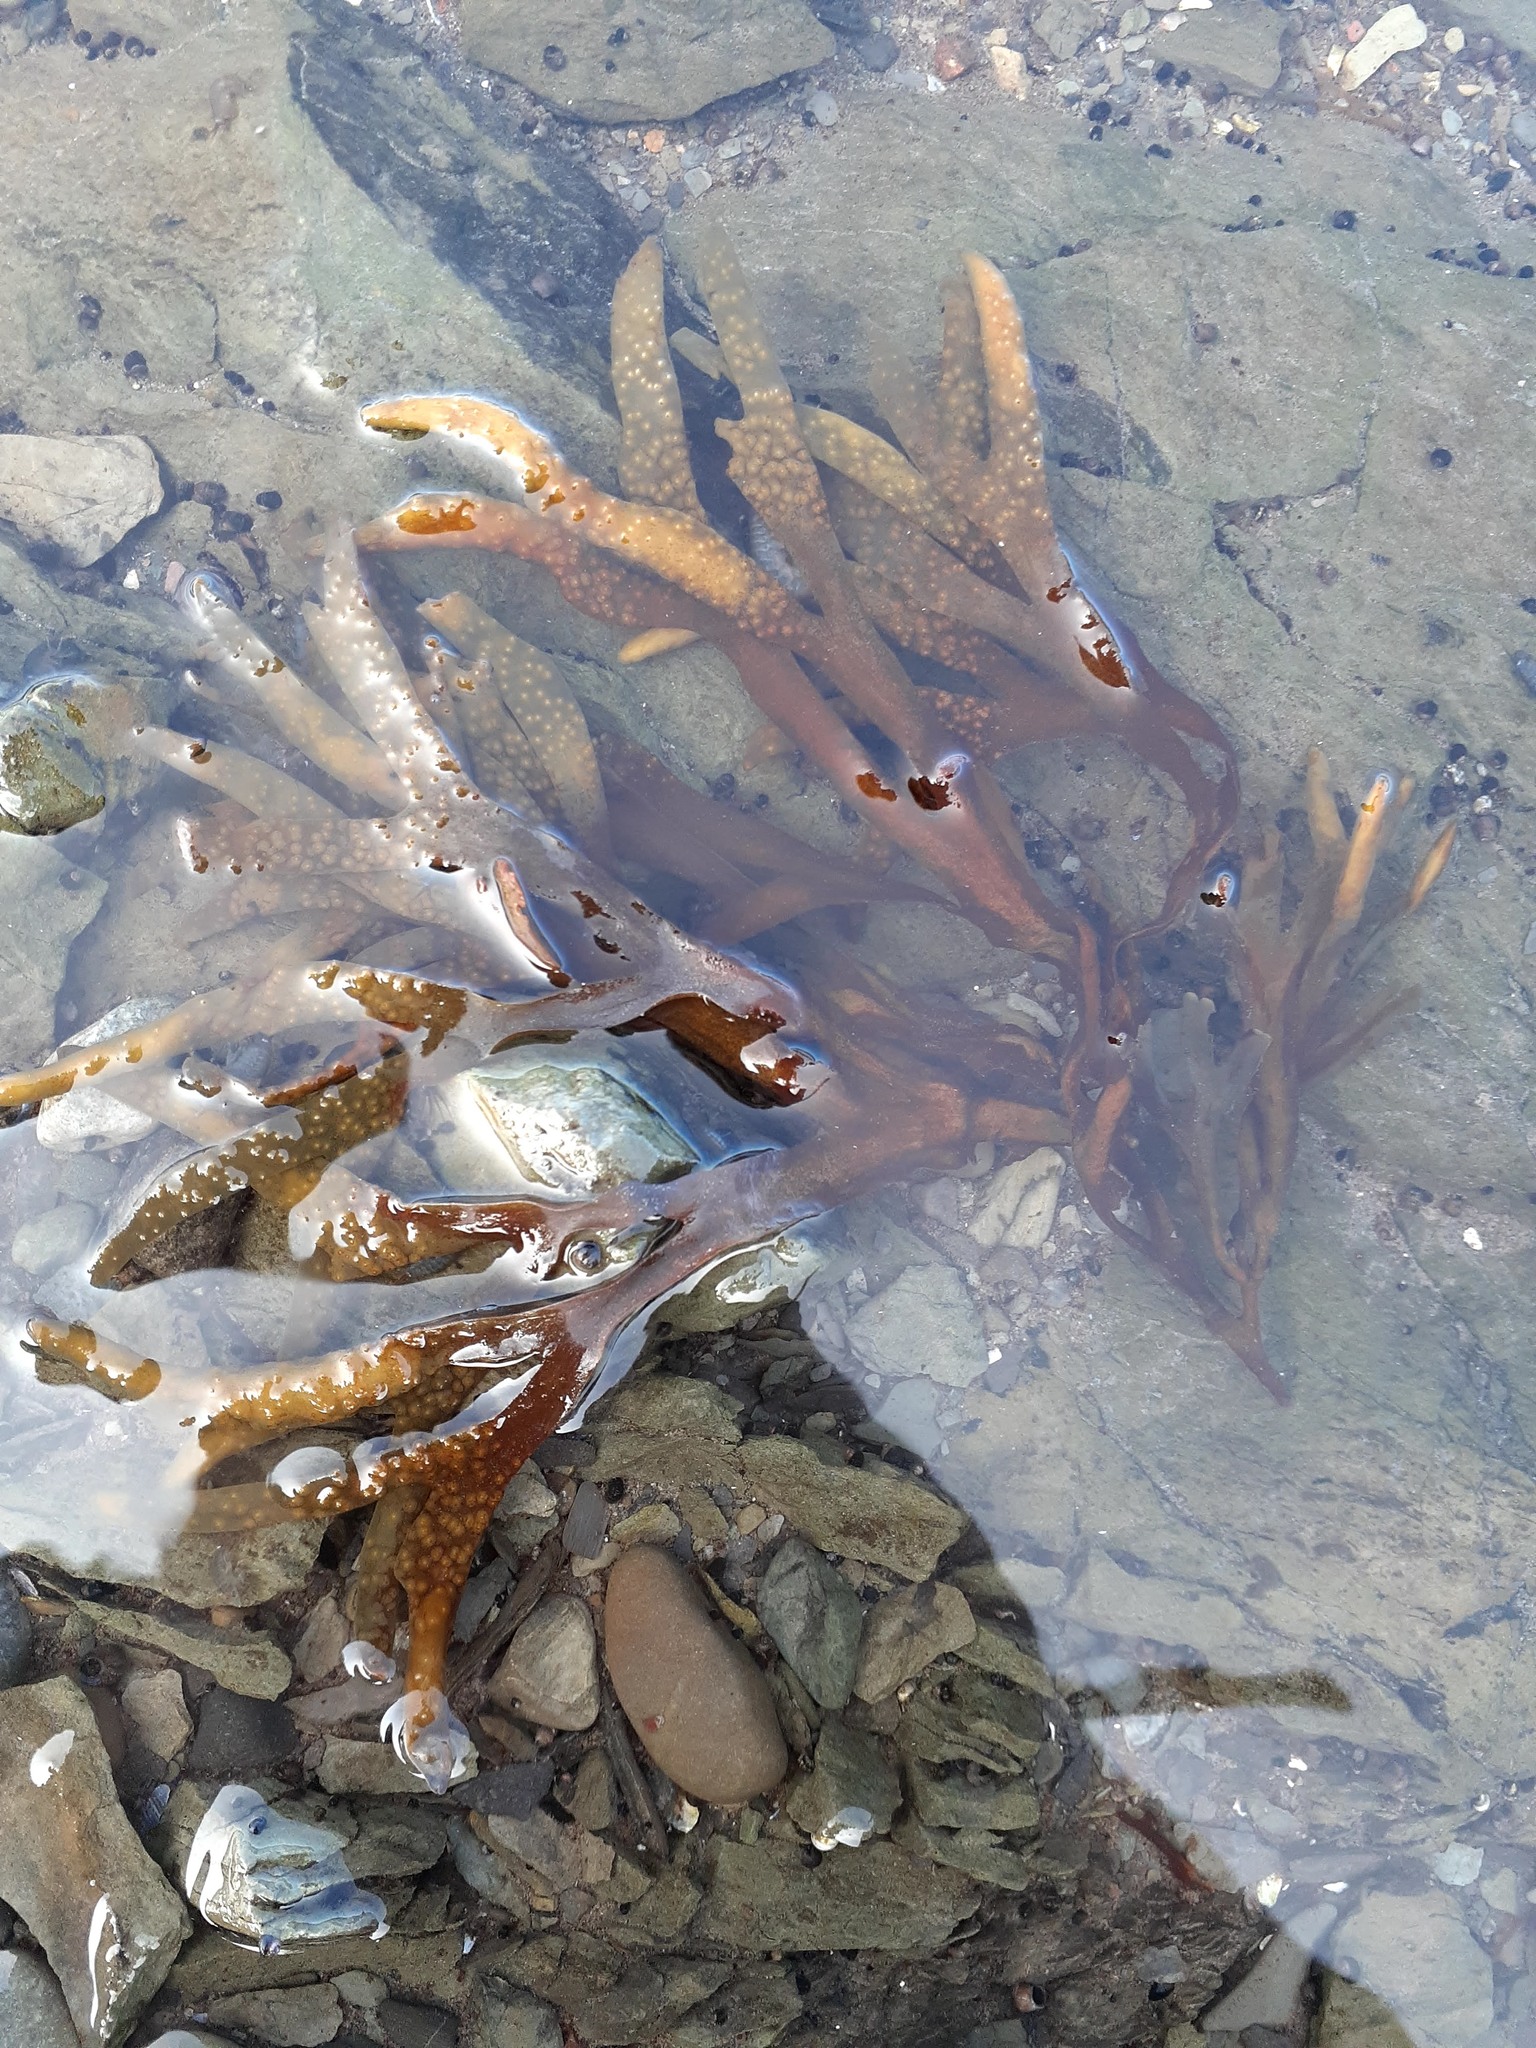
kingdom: Chromista
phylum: Ochrophyta
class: Phaeophyceae
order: Fucales
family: Fucaceae
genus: Fucus
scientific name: Fucus distichus
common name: Rockweed
